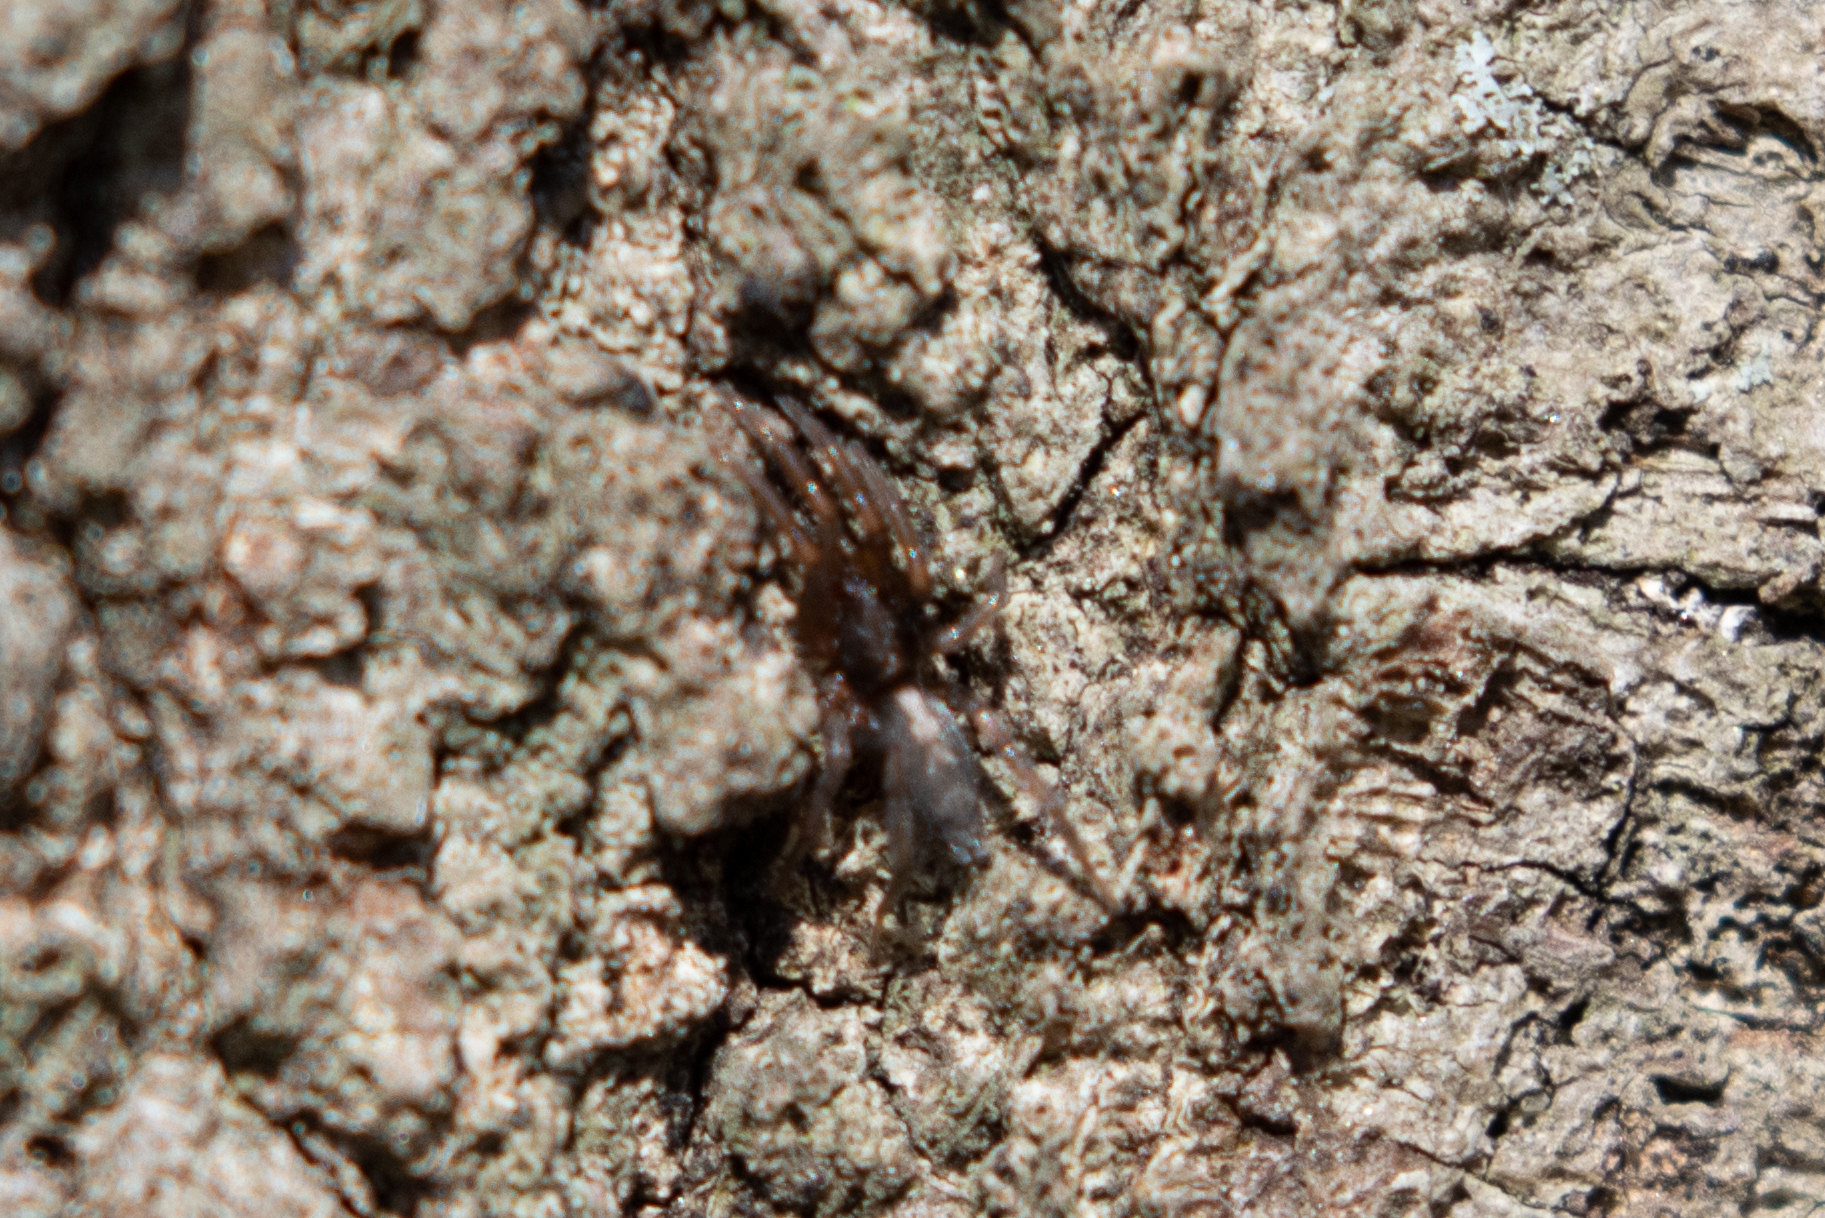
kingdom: Animalia
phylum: Arthropoda
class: Arachnida
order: Araneae
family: Gnaphosidae
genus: Herpyllus
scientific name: Herpyllus ecclesiasticus
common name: Eastern parson spider
